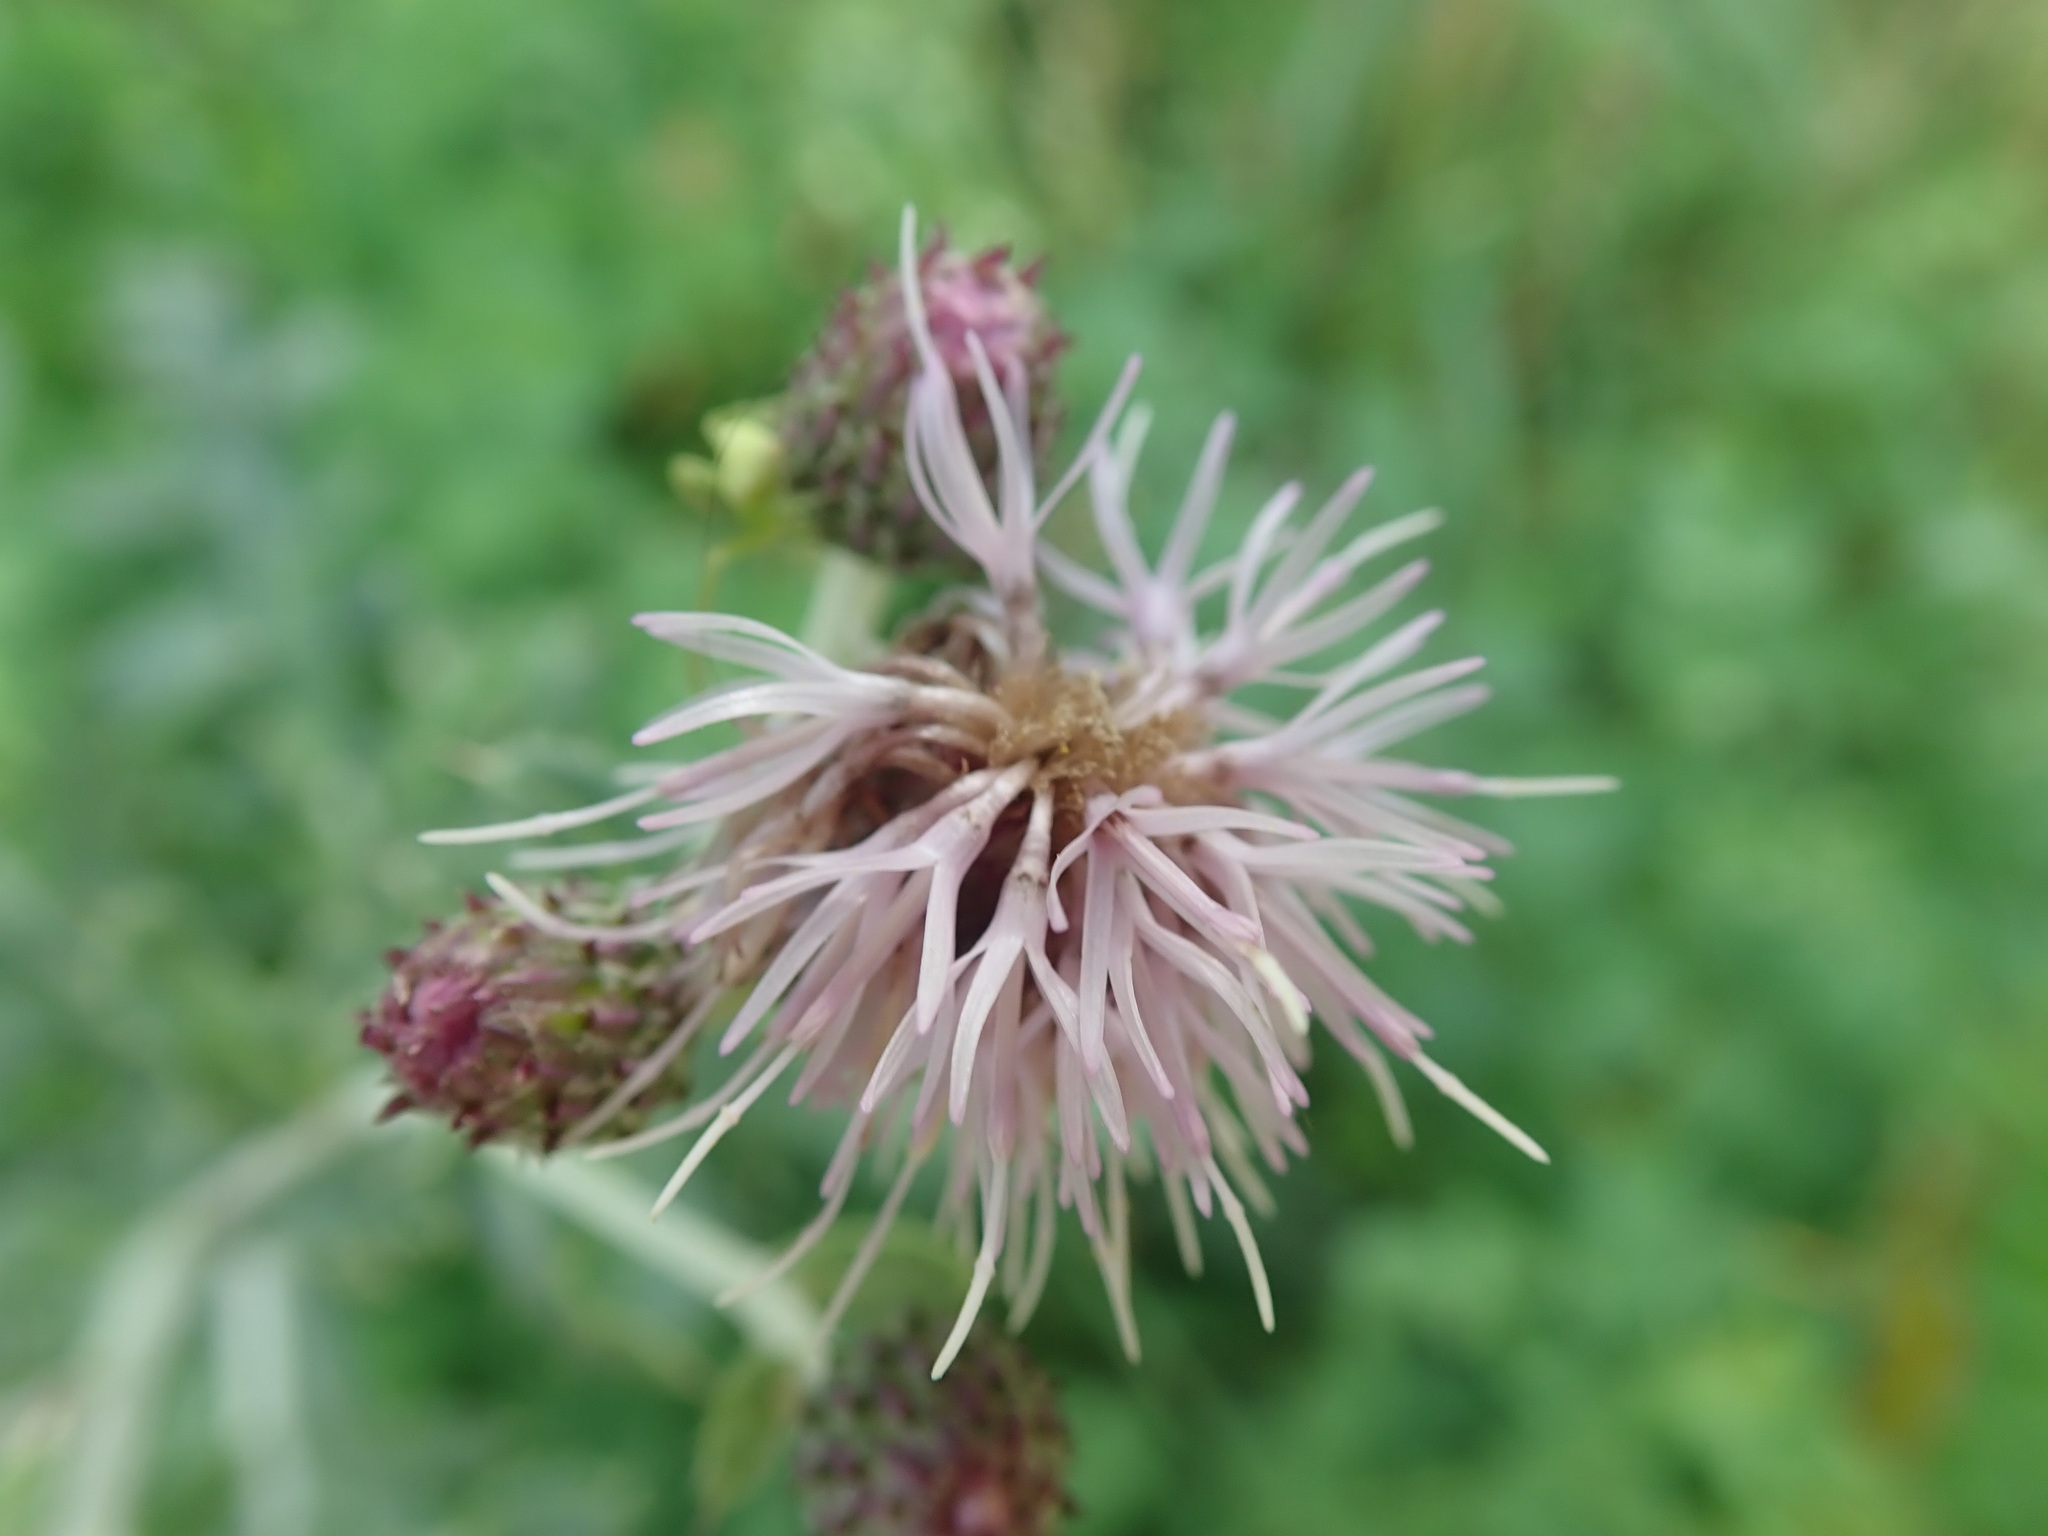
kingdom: Plantae
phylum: Tracheophyta
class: Magnoliopsida
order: Asterales
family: Asteraceae
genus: Cirsium
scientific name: Cirsium arvense
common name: Creeping thistle
